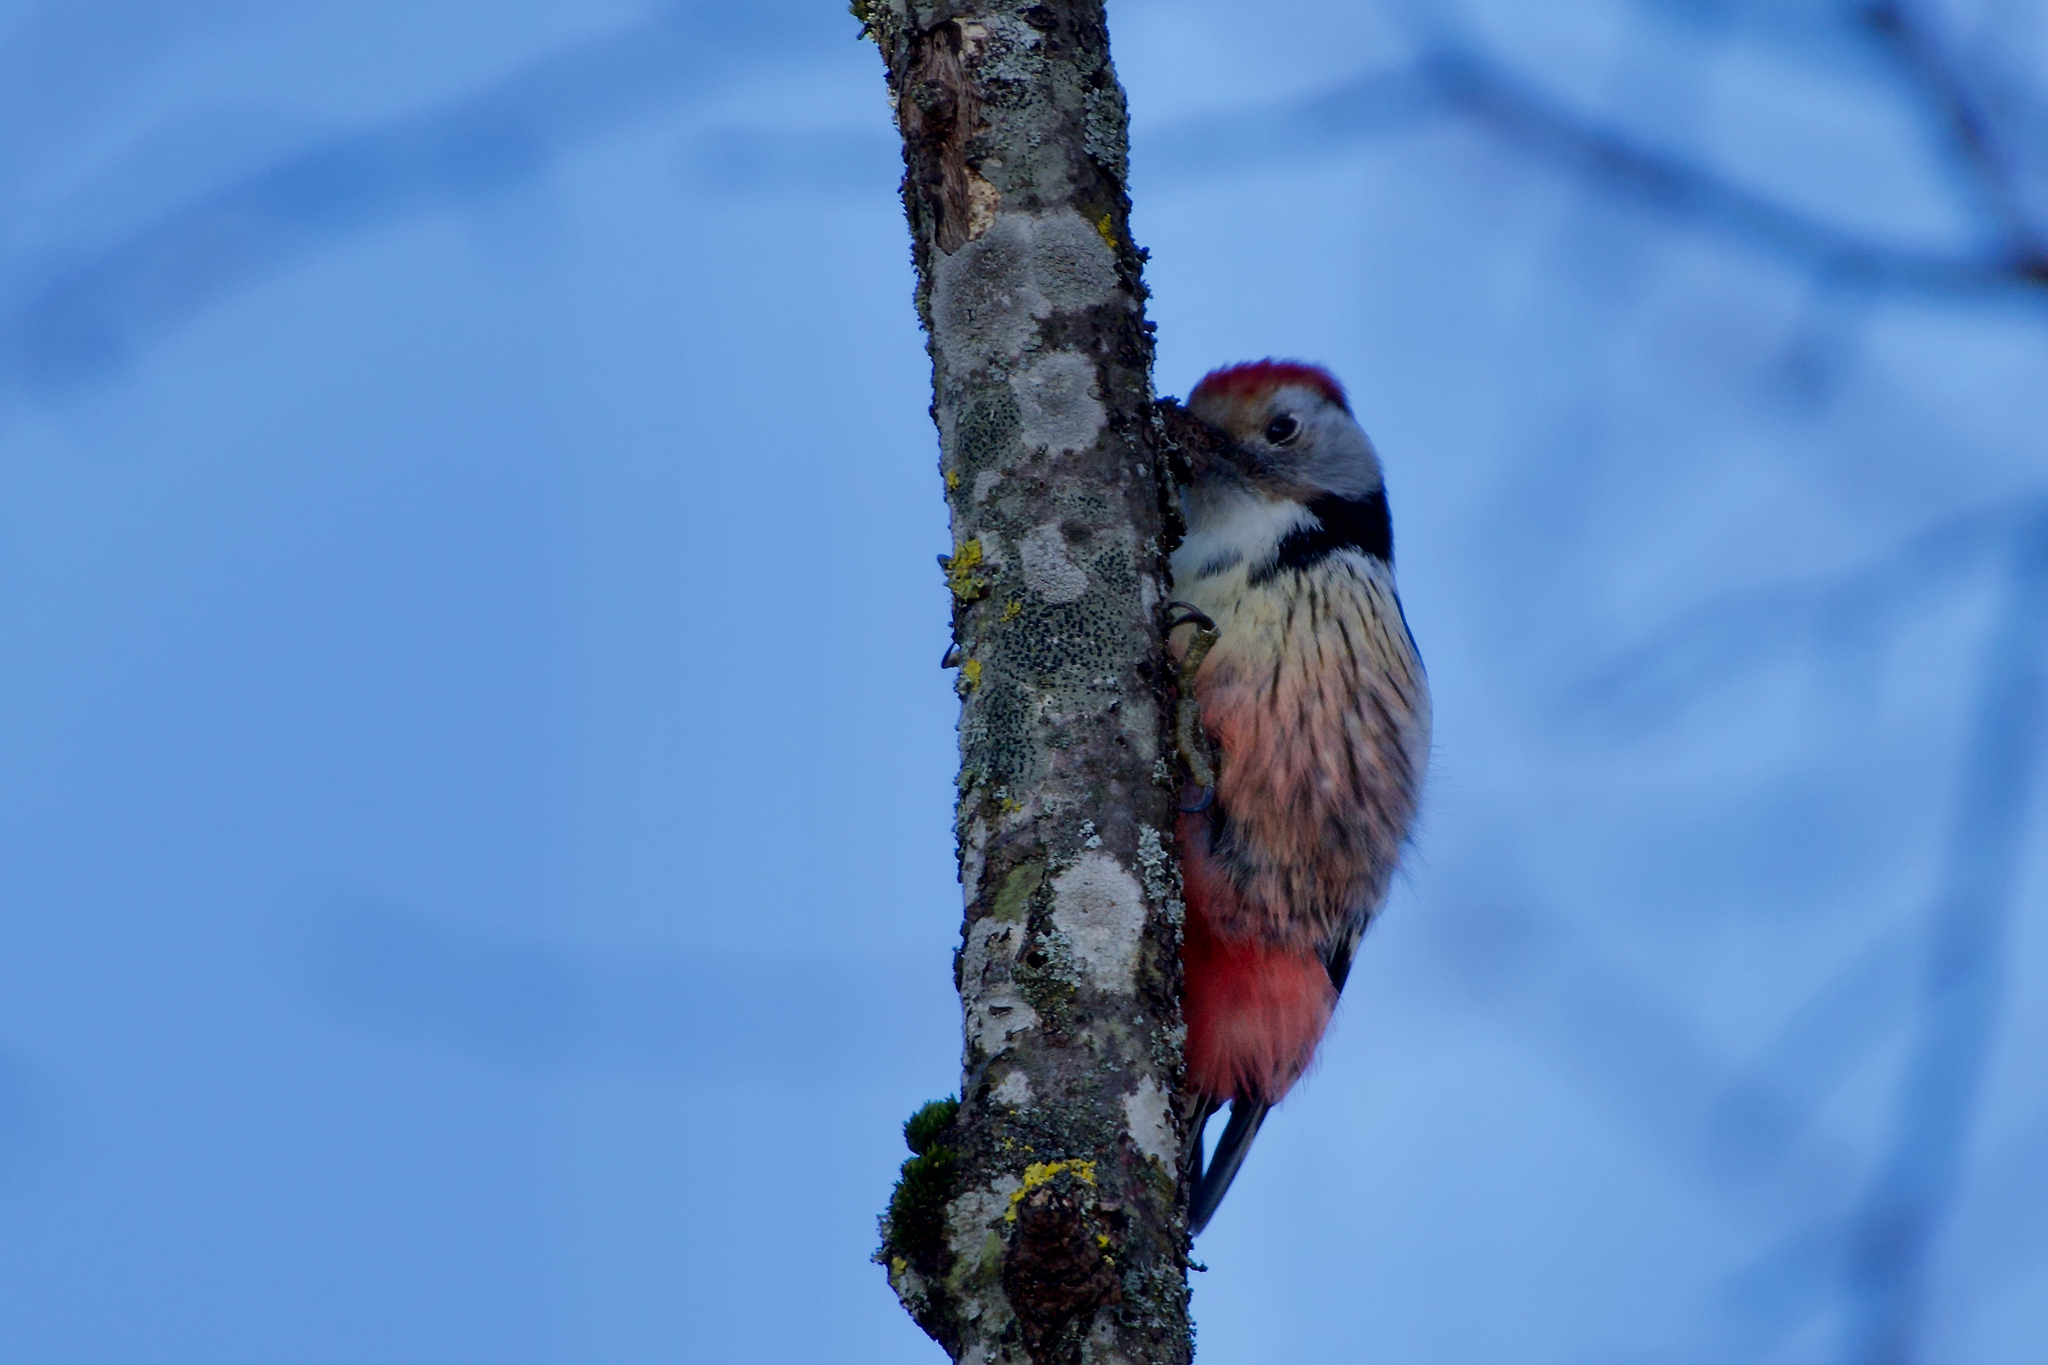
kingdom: Animalia
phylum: Chordata
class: Aves
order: Piciformes
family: Picidae
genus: Dendrocoptes
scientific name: Dendrocoptes medius
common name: Middle spotted woodpecker
